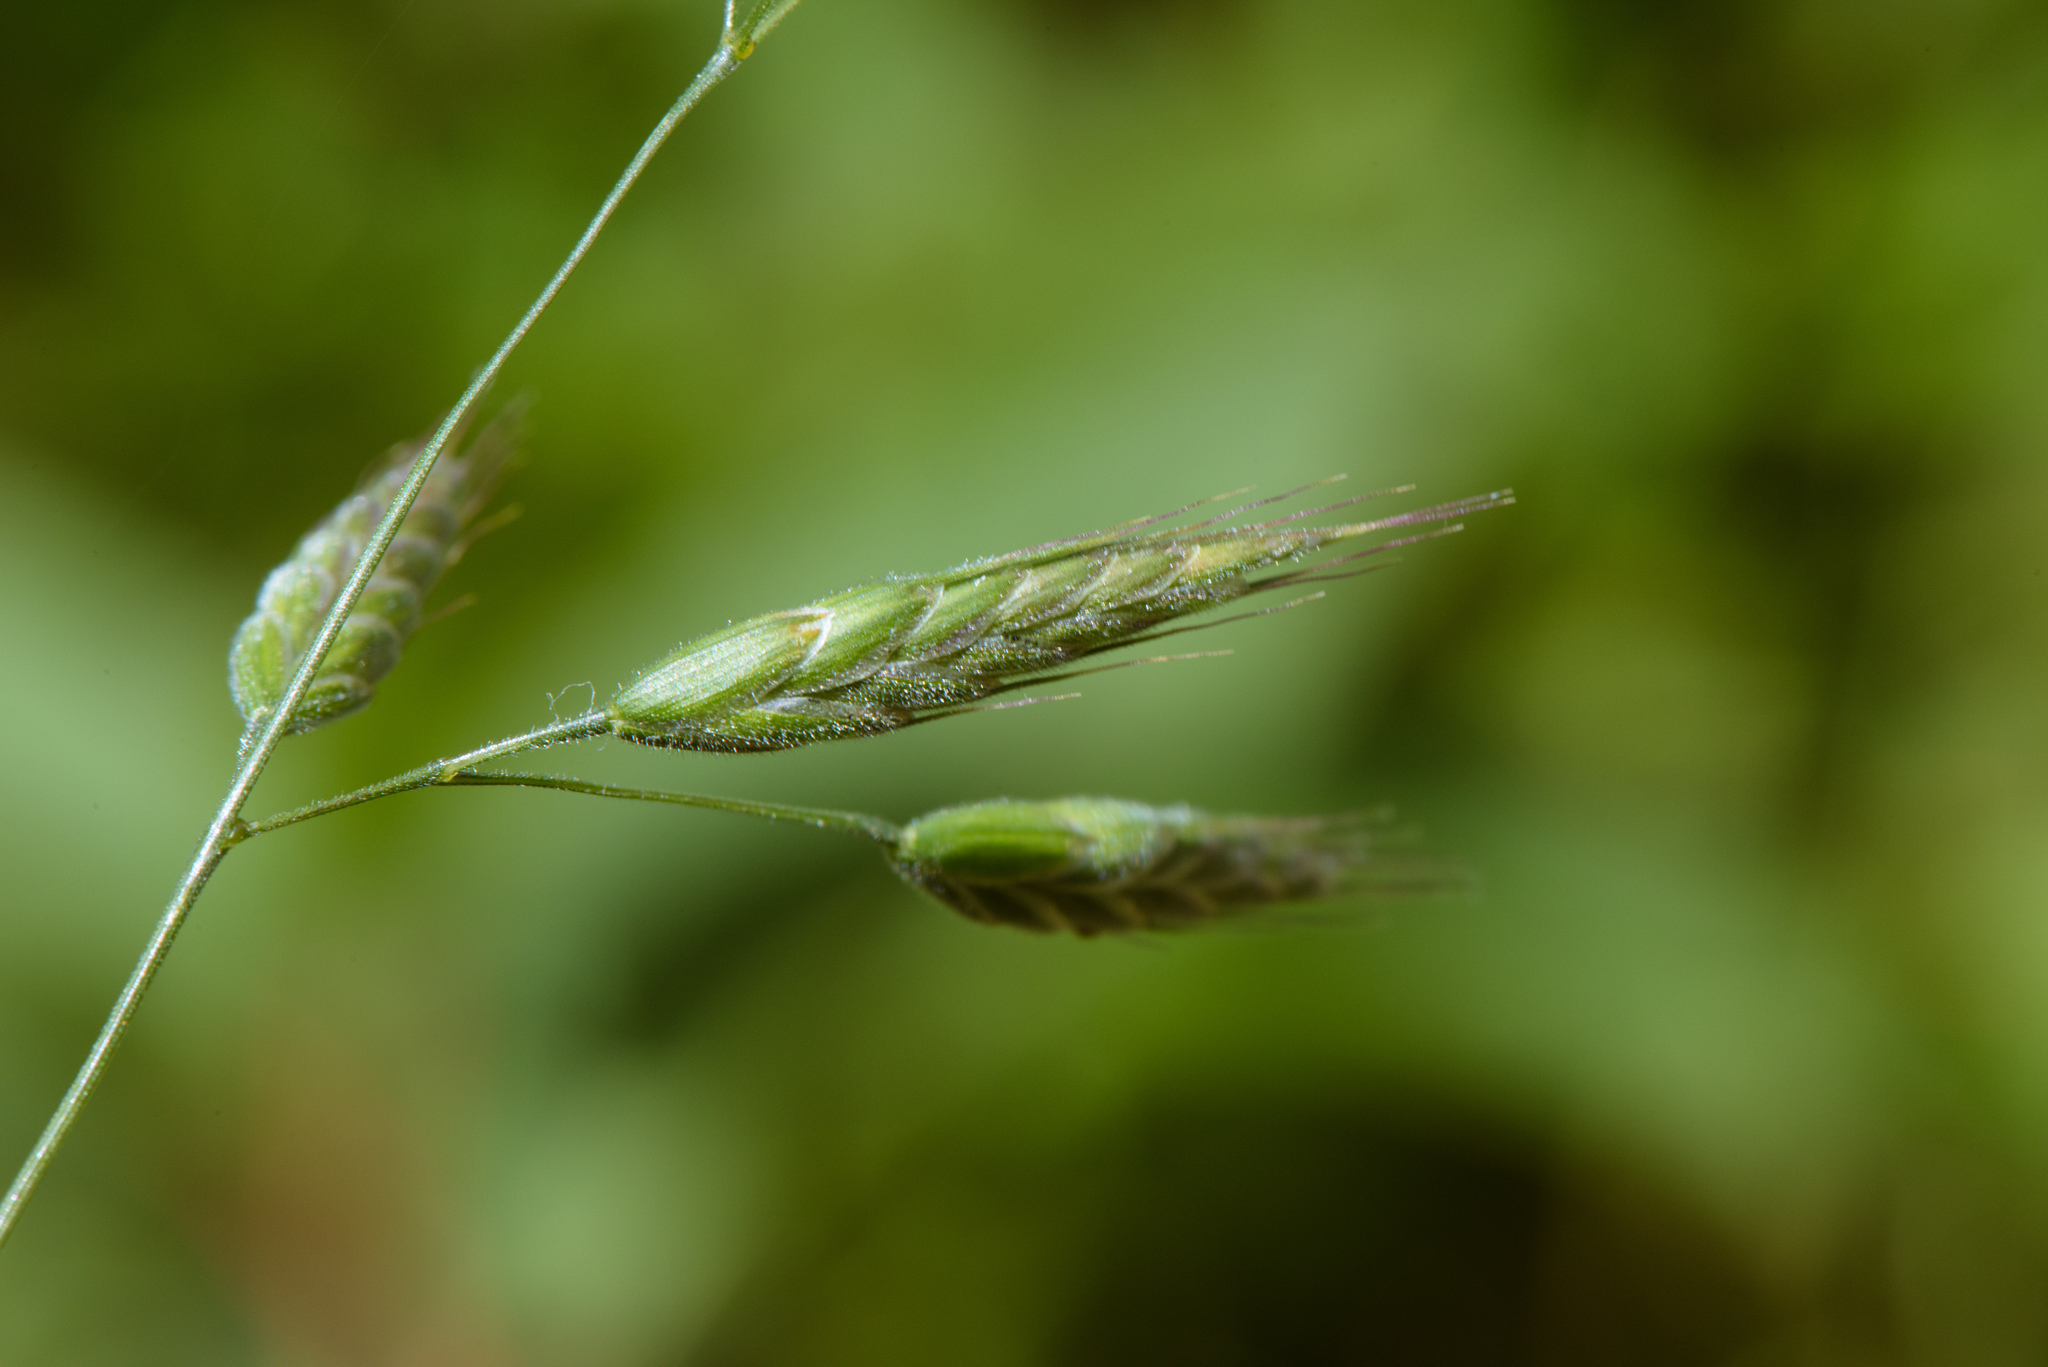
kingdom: Plantae
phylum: Tracheophyta
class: Liliopsida
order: Poales
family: Poaceae
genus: Bromus
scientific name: Bromus hordeaceus
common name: Soft brome
